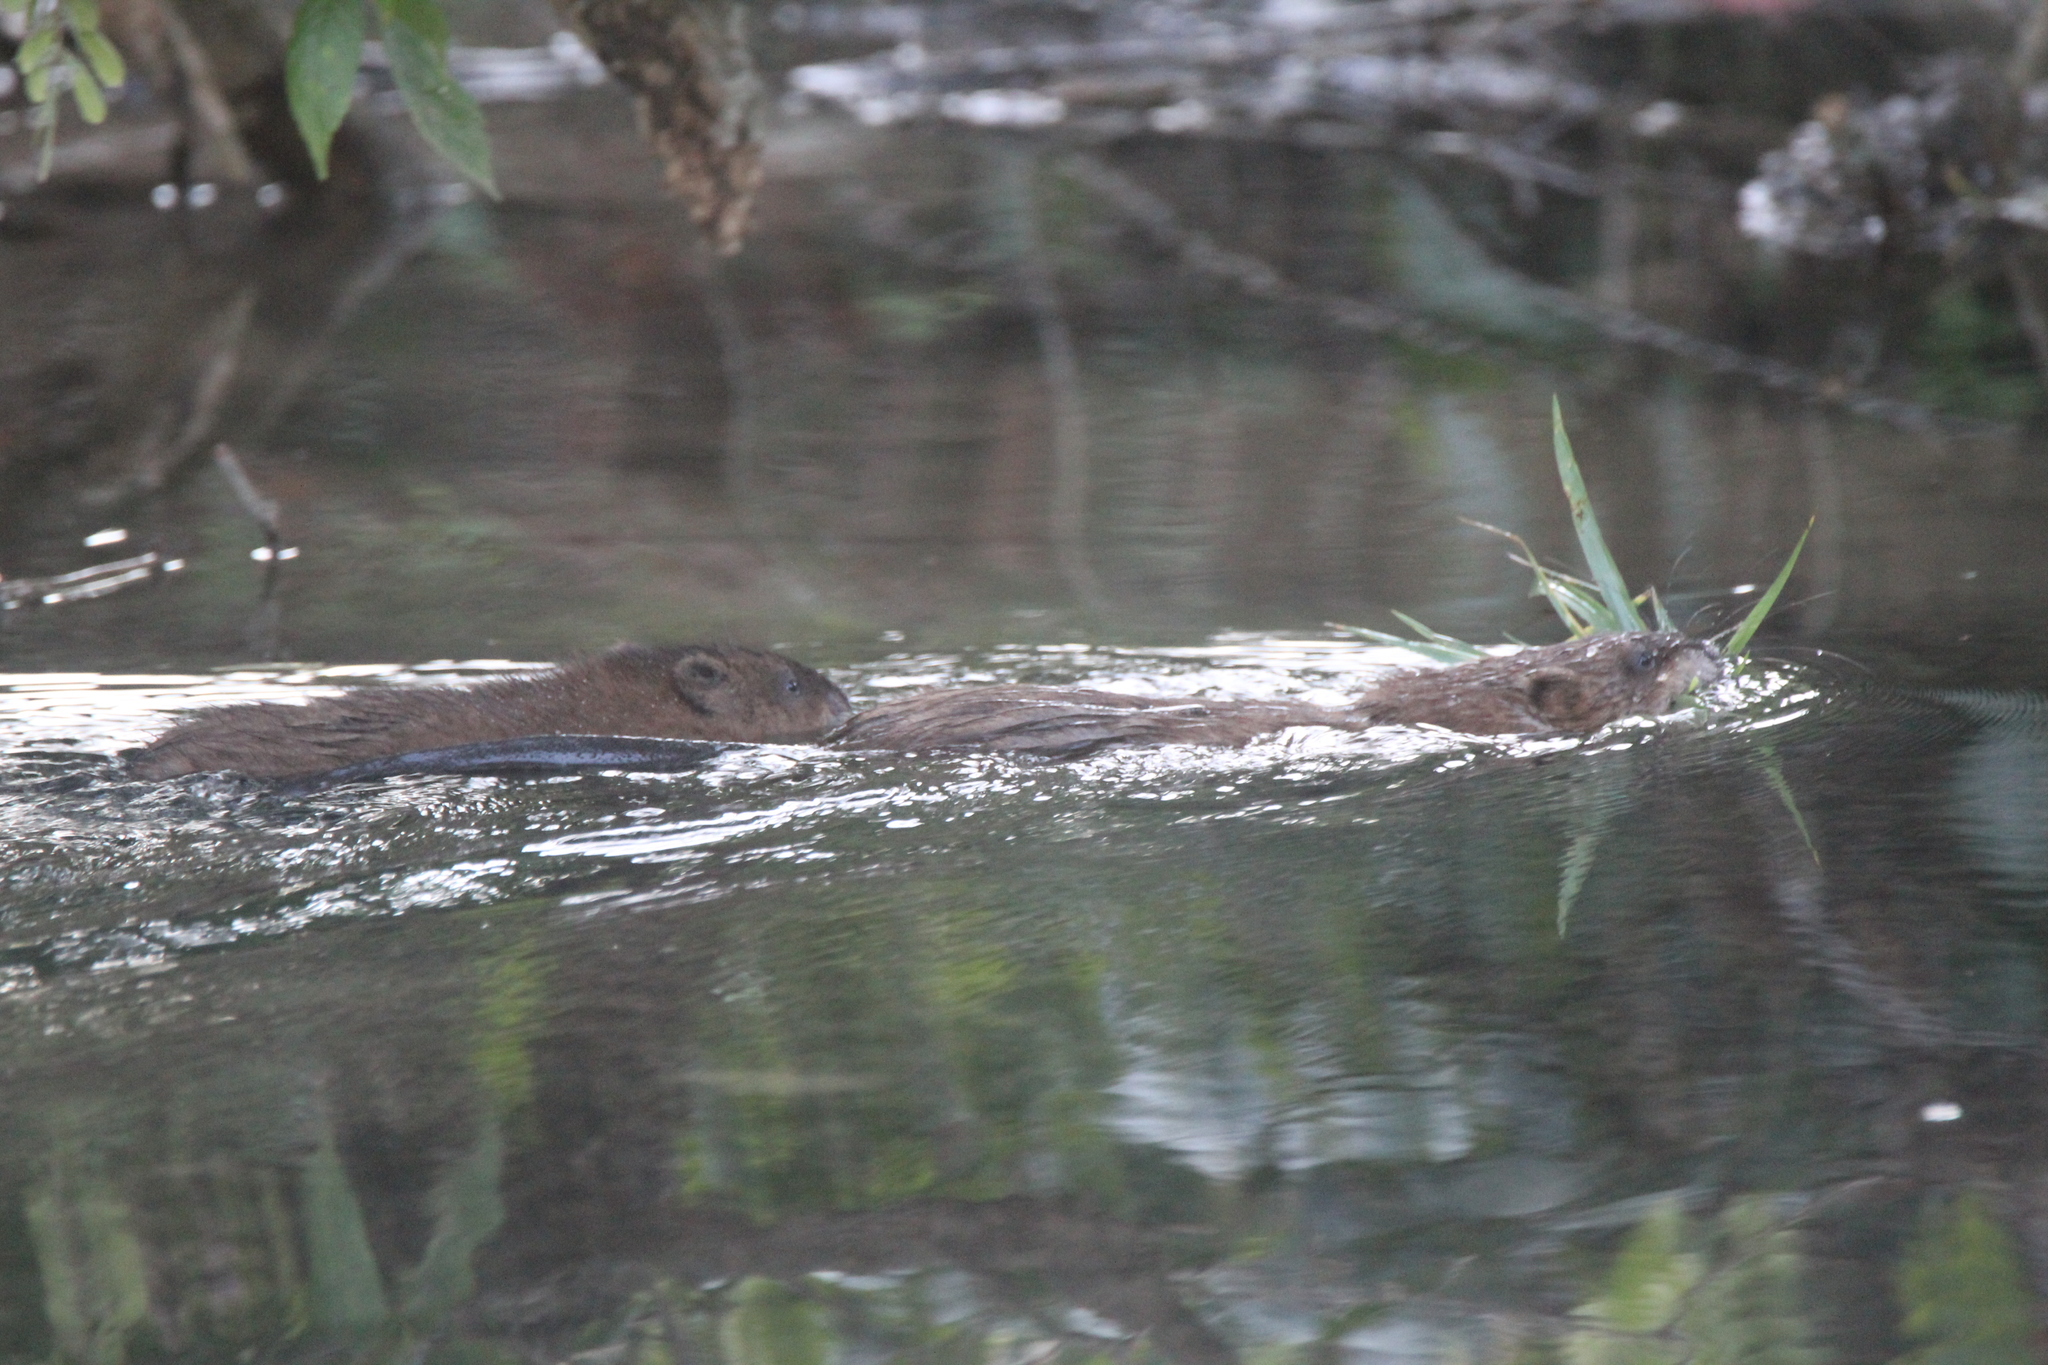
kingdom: Animalia
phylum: Chordata
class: Mammalia
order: Rodentia
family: Cricetidae
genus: Ondatra
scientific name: Ondatra zibethicus
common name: Muskrat
